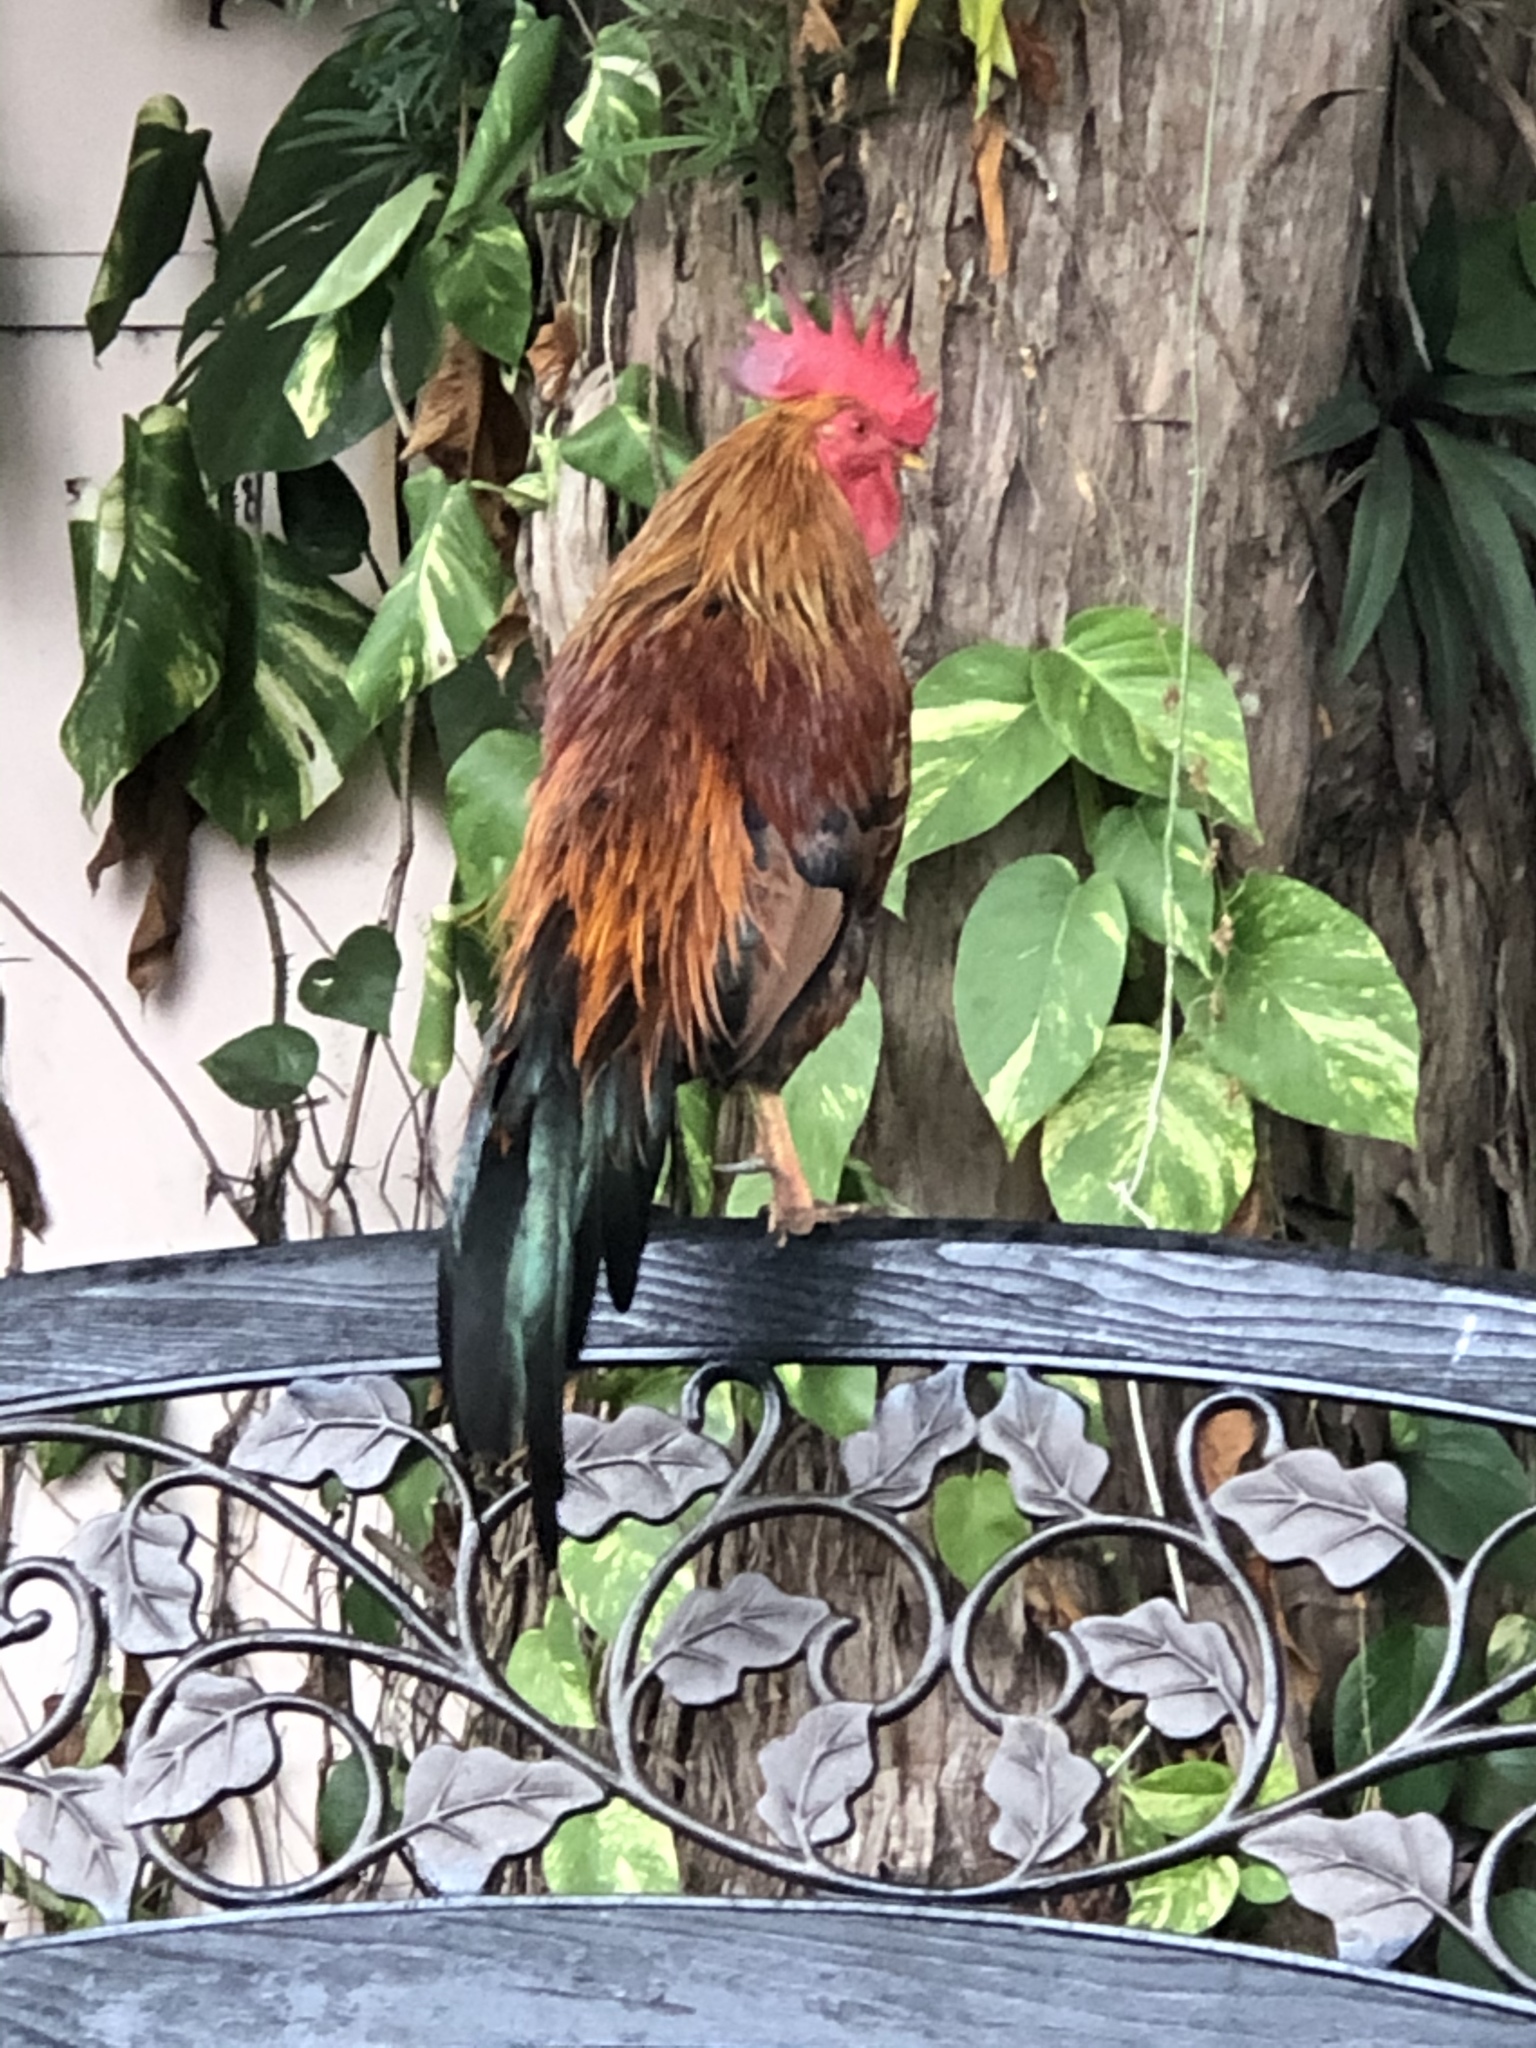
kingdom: Animalia
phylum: Chordata
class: Aves
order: Galliformes
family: Phasianidae
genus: Gallus
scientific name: Gallus gallus
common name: Red junglefowl
